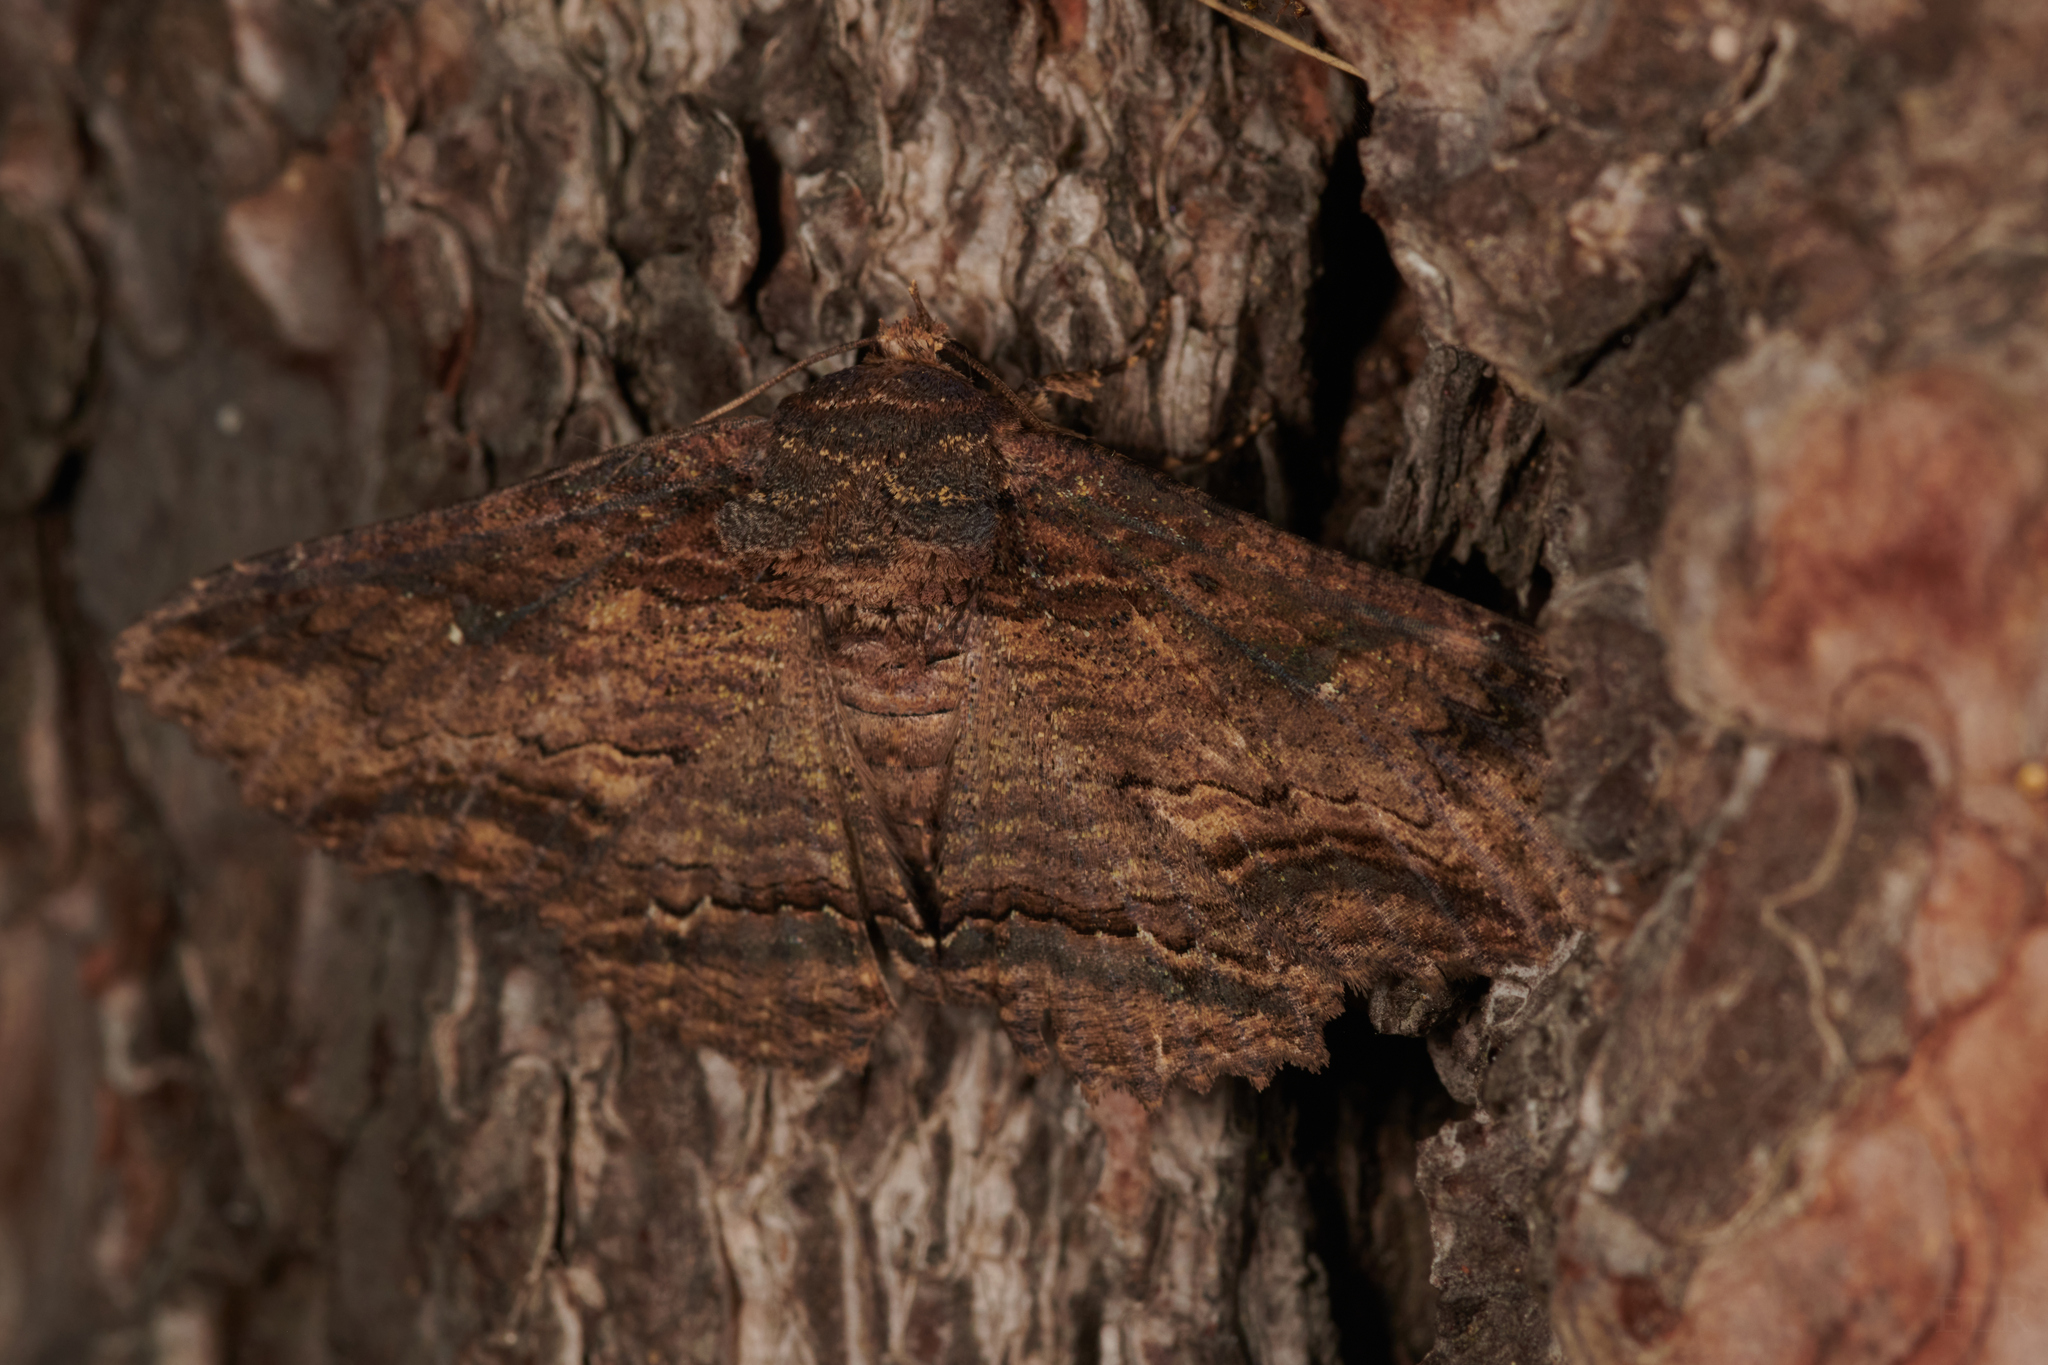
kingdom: Animalia
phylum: Arthropoda
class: Insecta
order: Lepidoptera
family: Erebidae
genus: Zale
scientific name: Zale lunata
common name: Lunate zale moth
